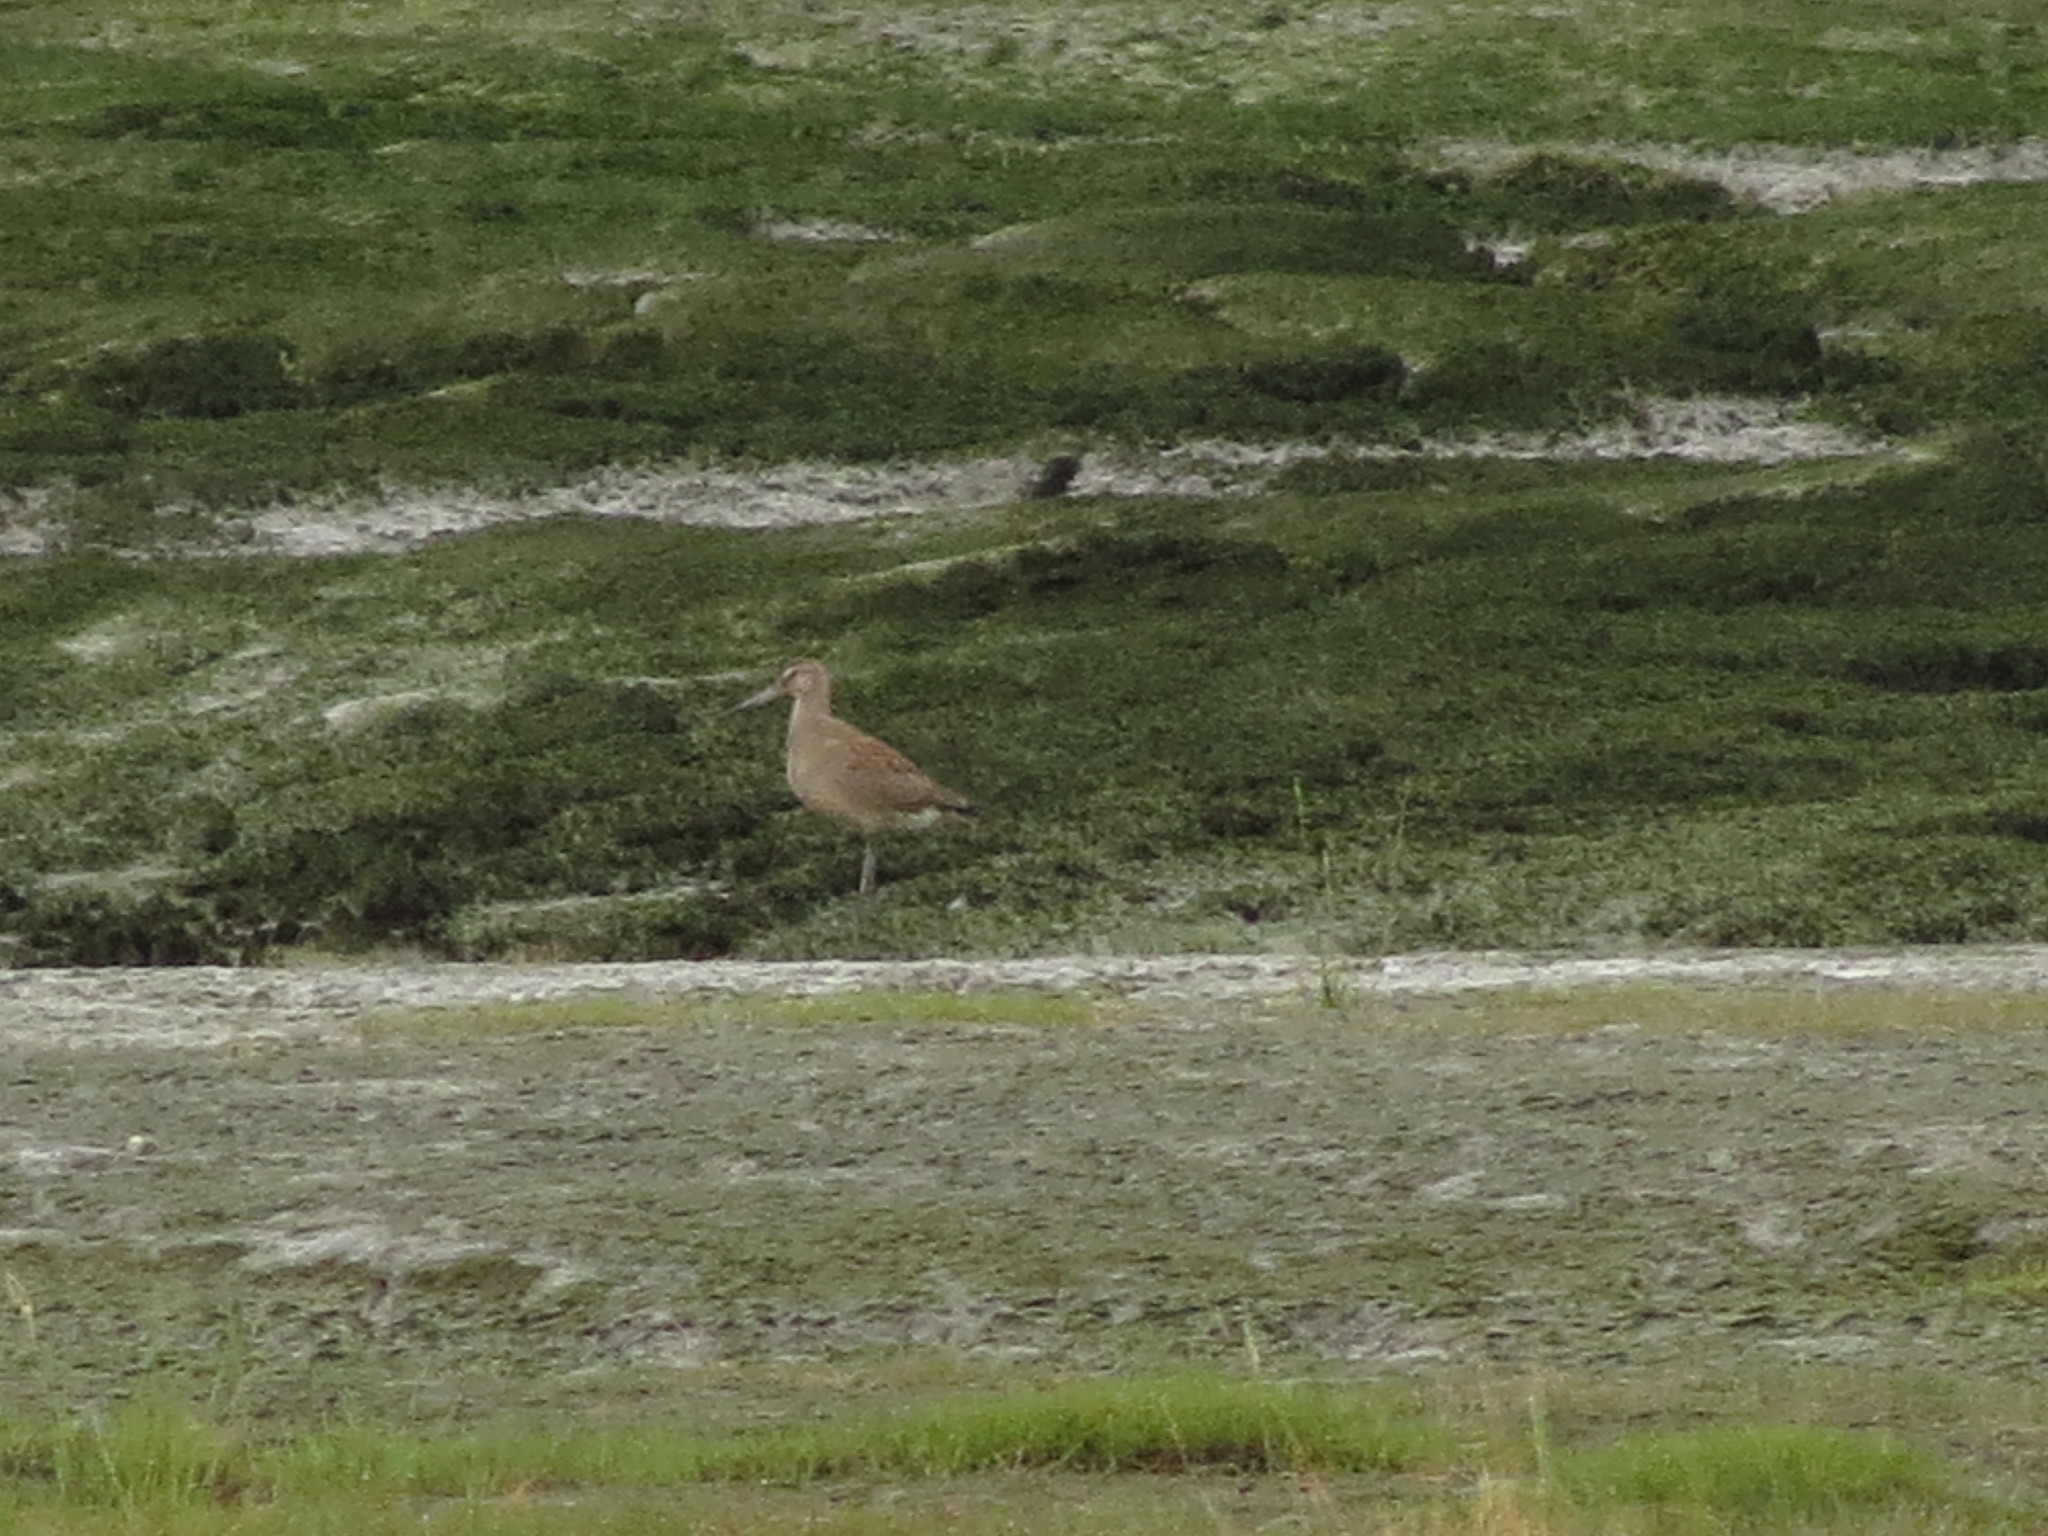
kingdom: Animalia
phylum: Chordata
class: Aves
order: Charadriiformes
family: Scolopacidae
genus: Limosa
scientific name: Limosa haemastica
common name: Hudsonian godwit
